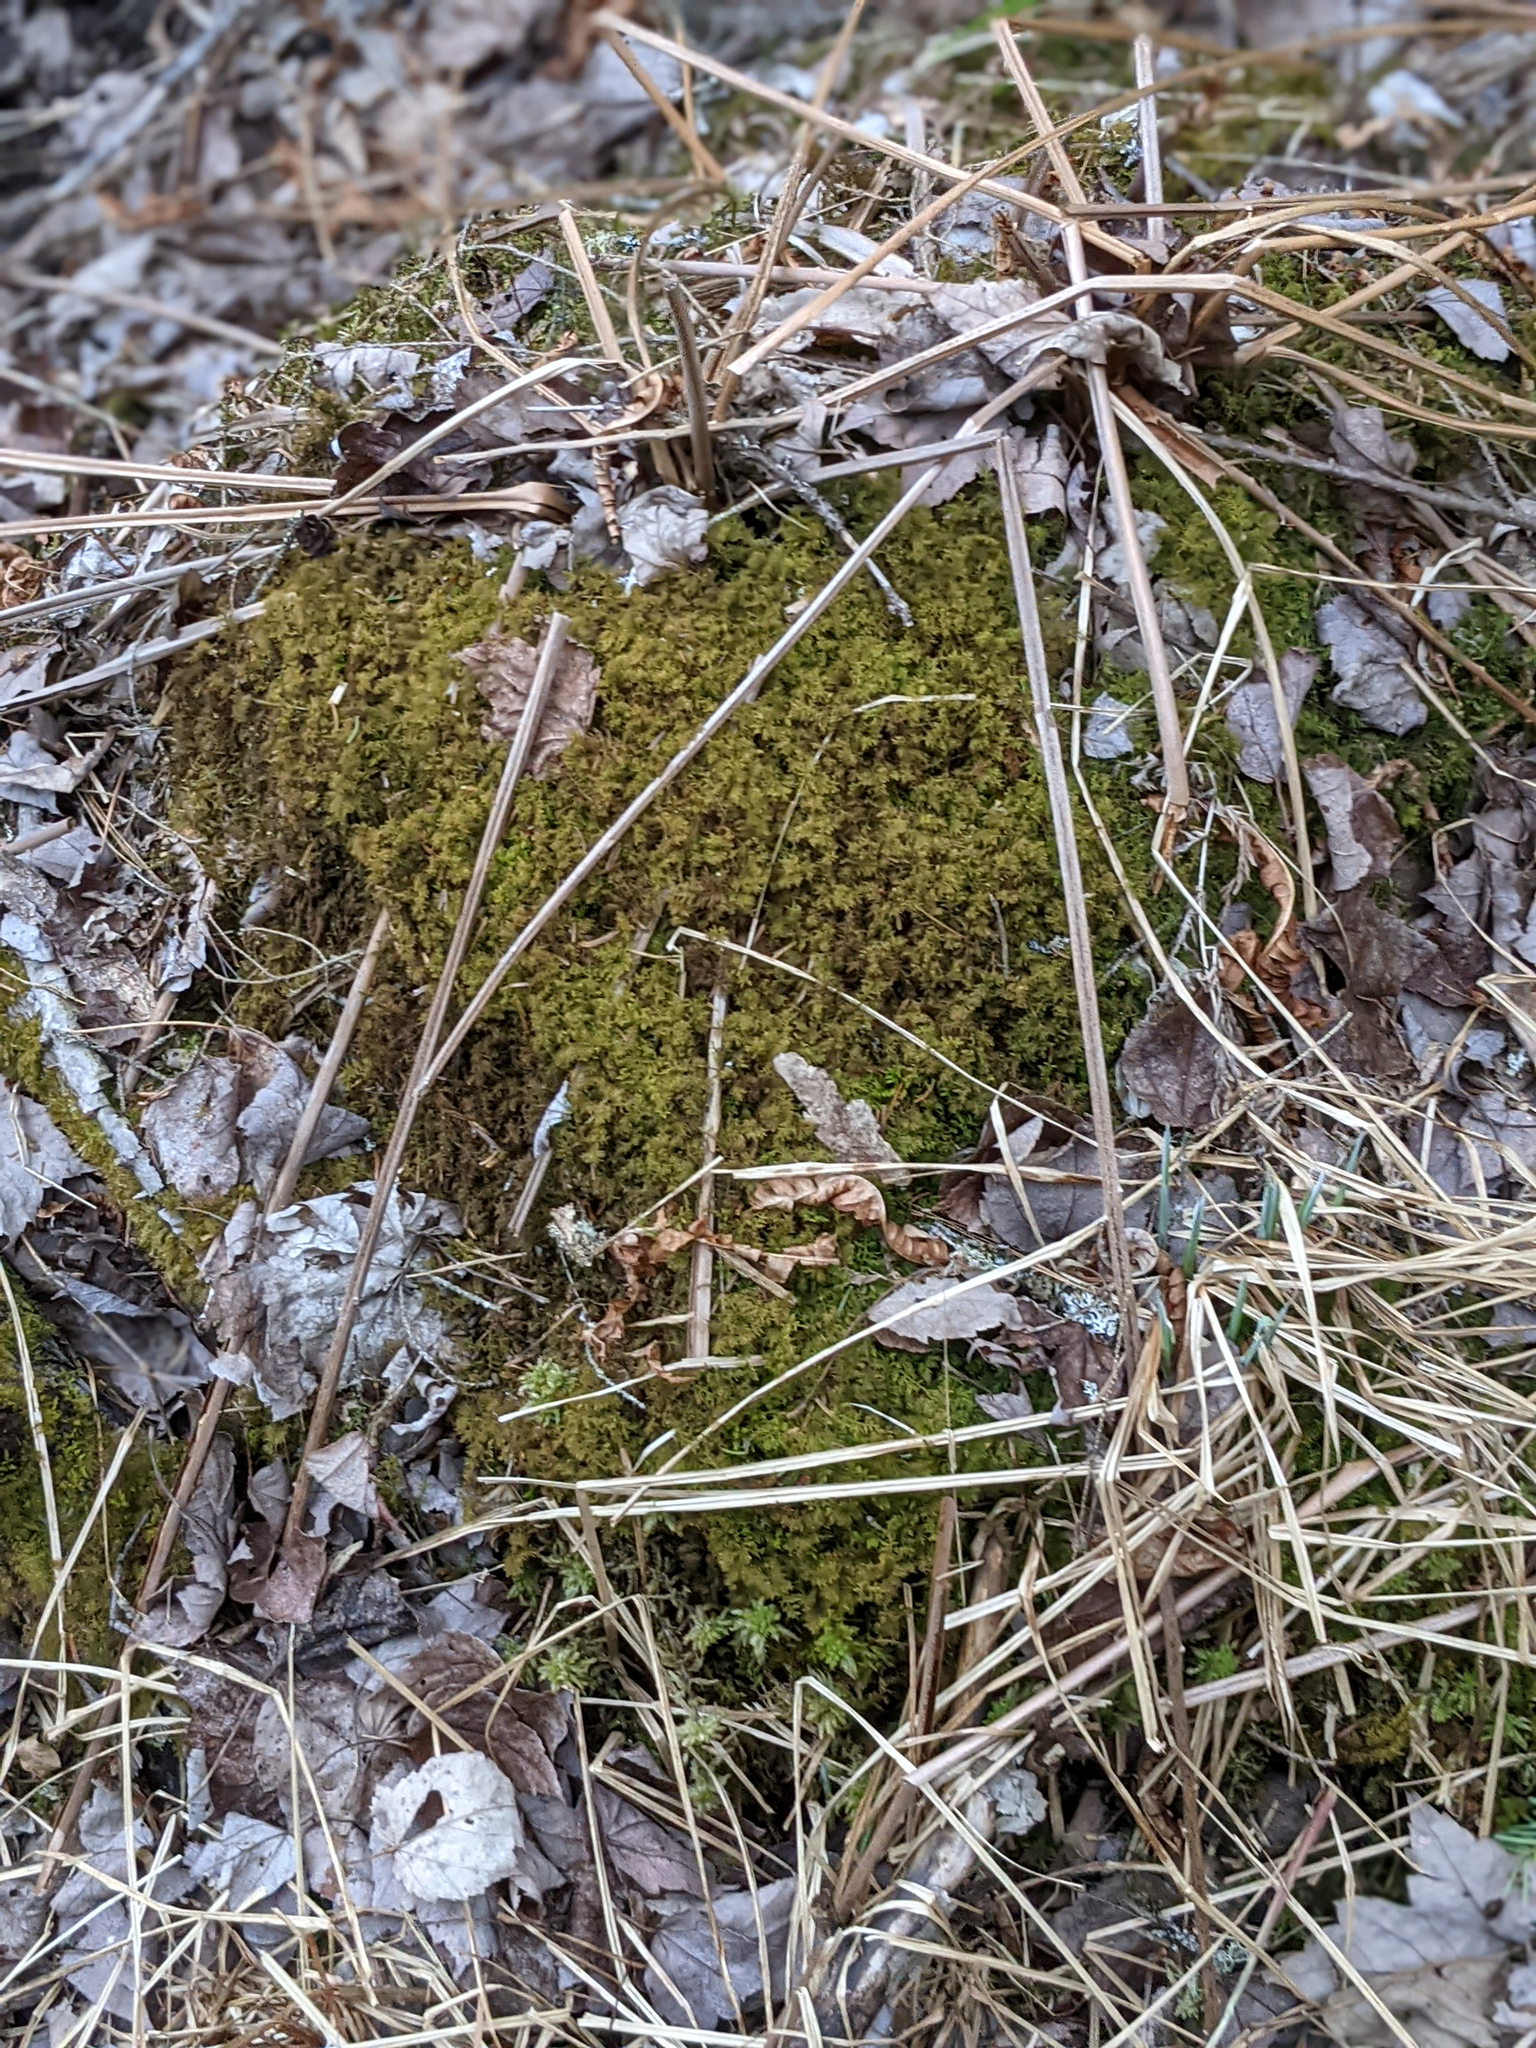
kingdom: Plantae
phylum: Bryophyta
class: Bryopsida
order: Hypnales
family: Hylocomiaceae
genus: Hylocomium
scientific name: Hylocomium splendens
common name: Stairstep moss
